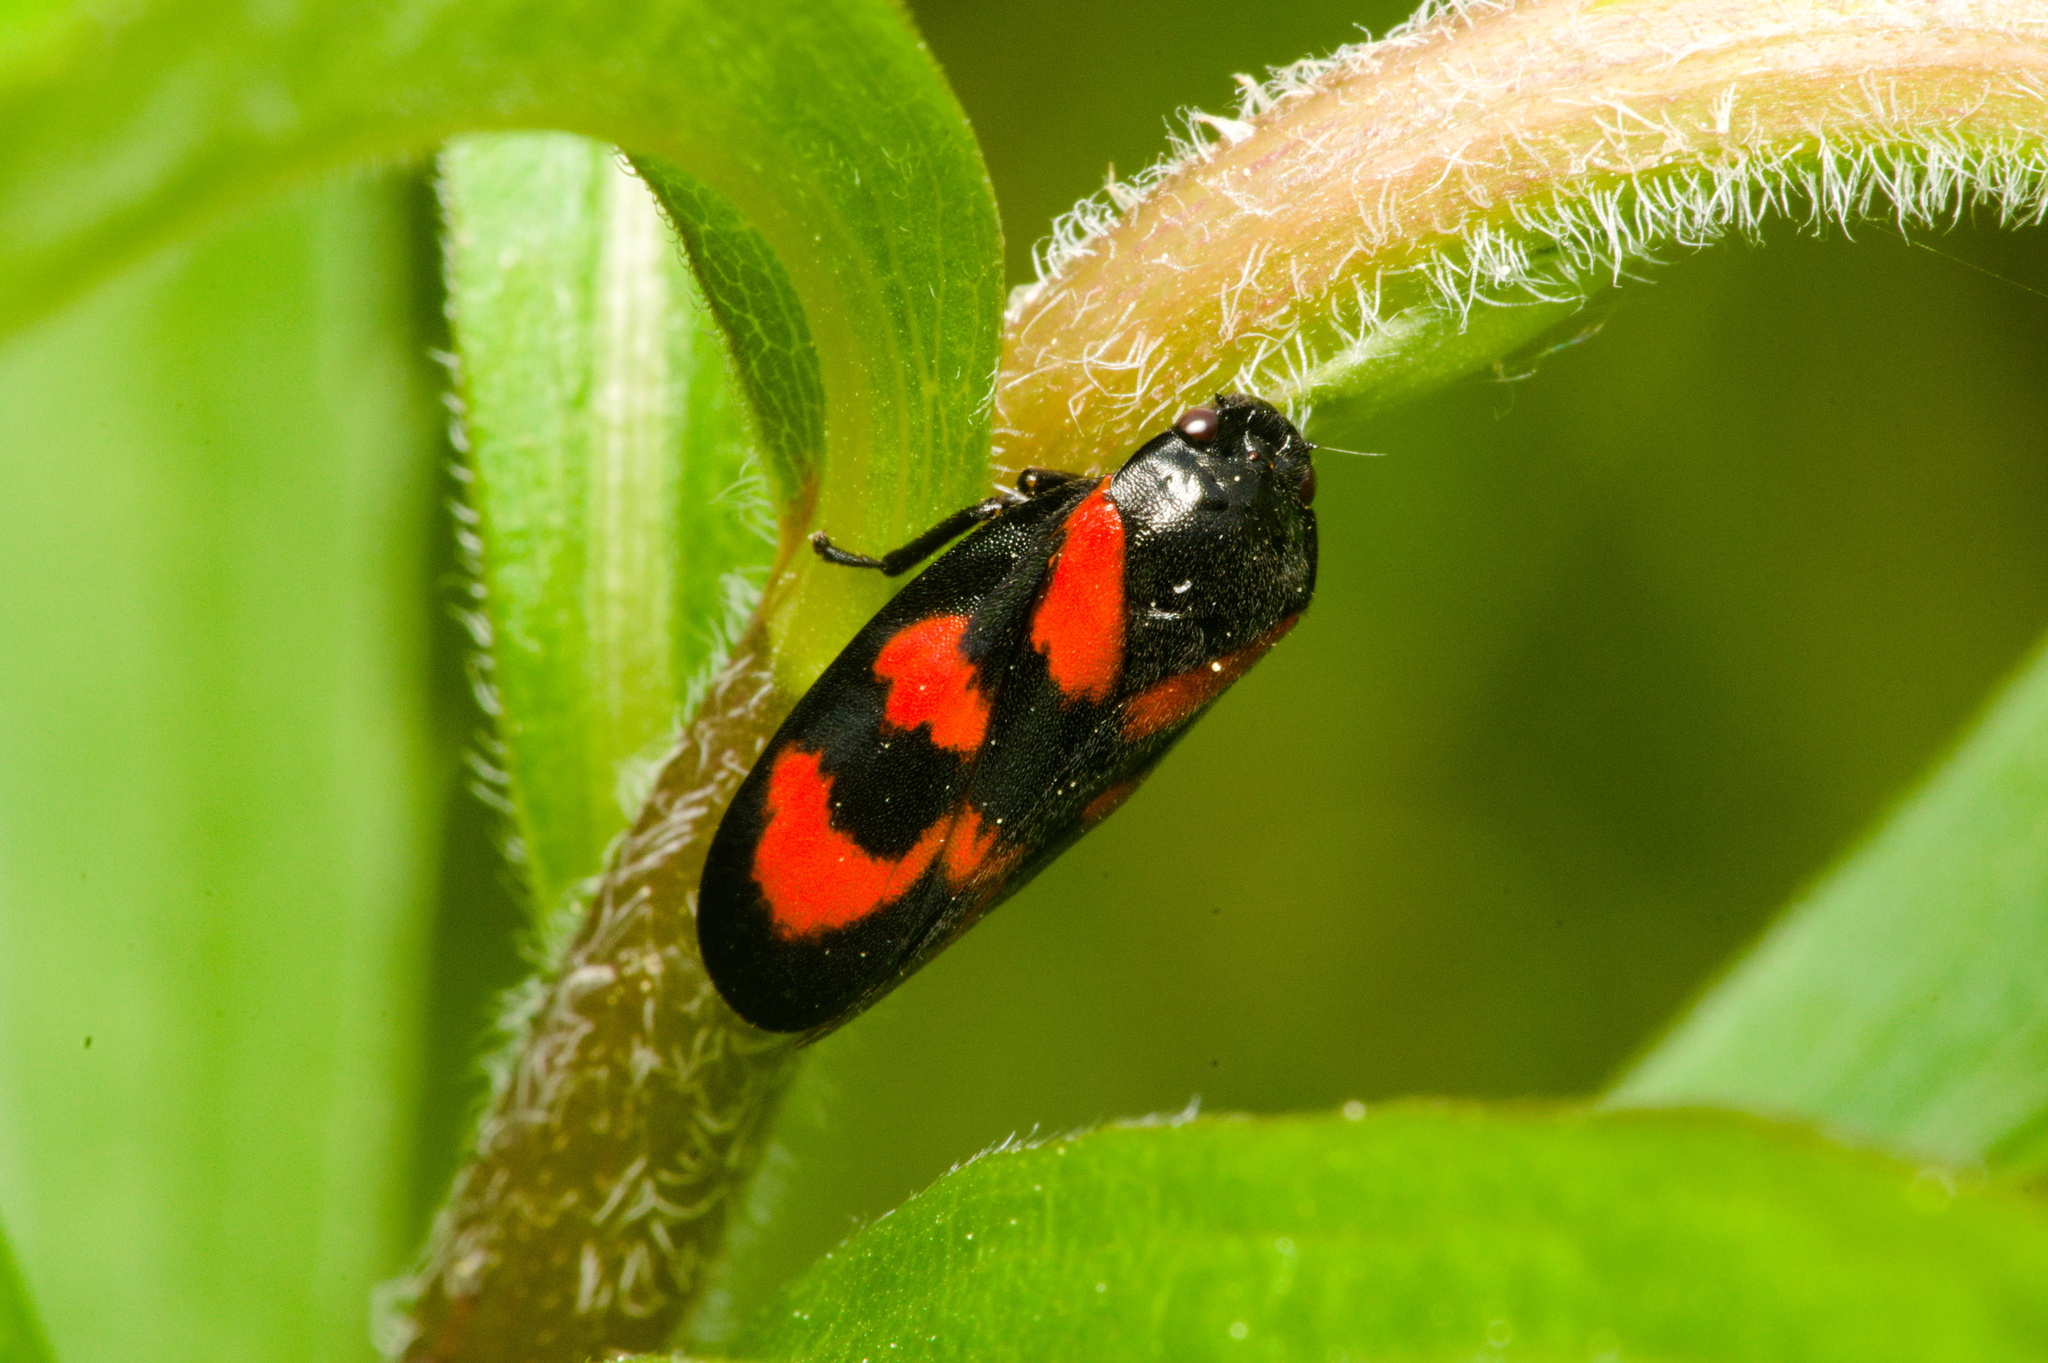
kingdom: Animalia
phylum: Arthropoda
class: Insecta
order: Hemiptera
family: Cercopidae
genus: Cercopis
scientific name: Cercopis vulnerata
